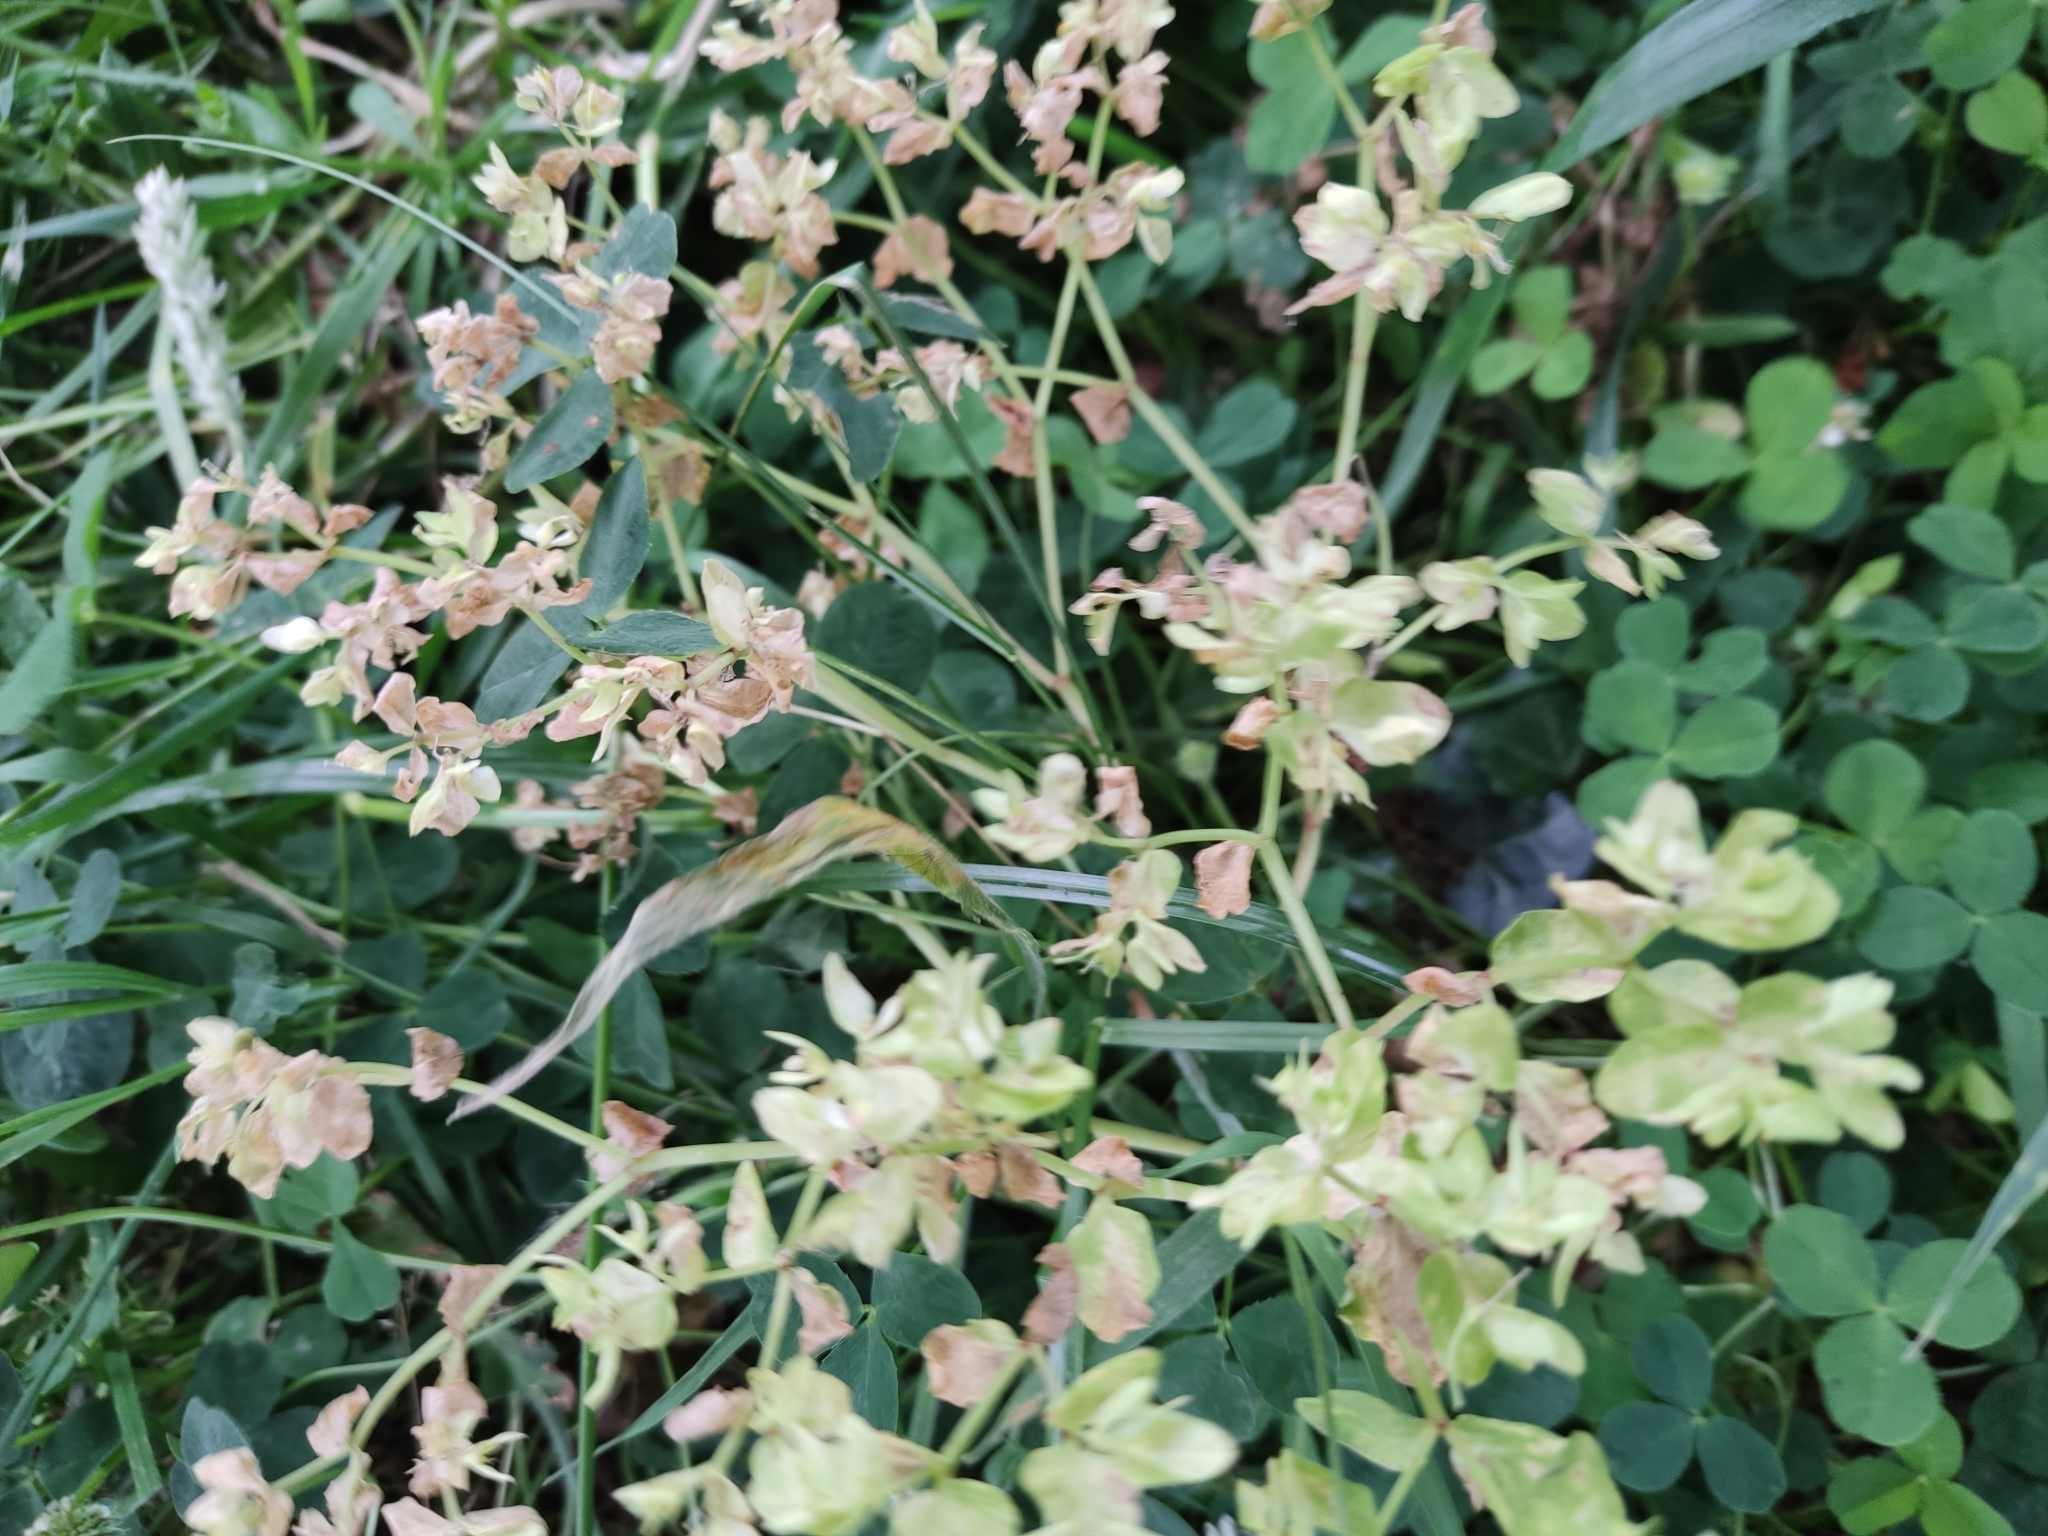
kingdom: Plantae
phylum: Tracheophyta
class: Magnoliopsida
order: Malpighiales
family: Euphorbiaceae
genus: Euphorbia
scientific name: Euphorbia peplus
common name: Petty spurge
